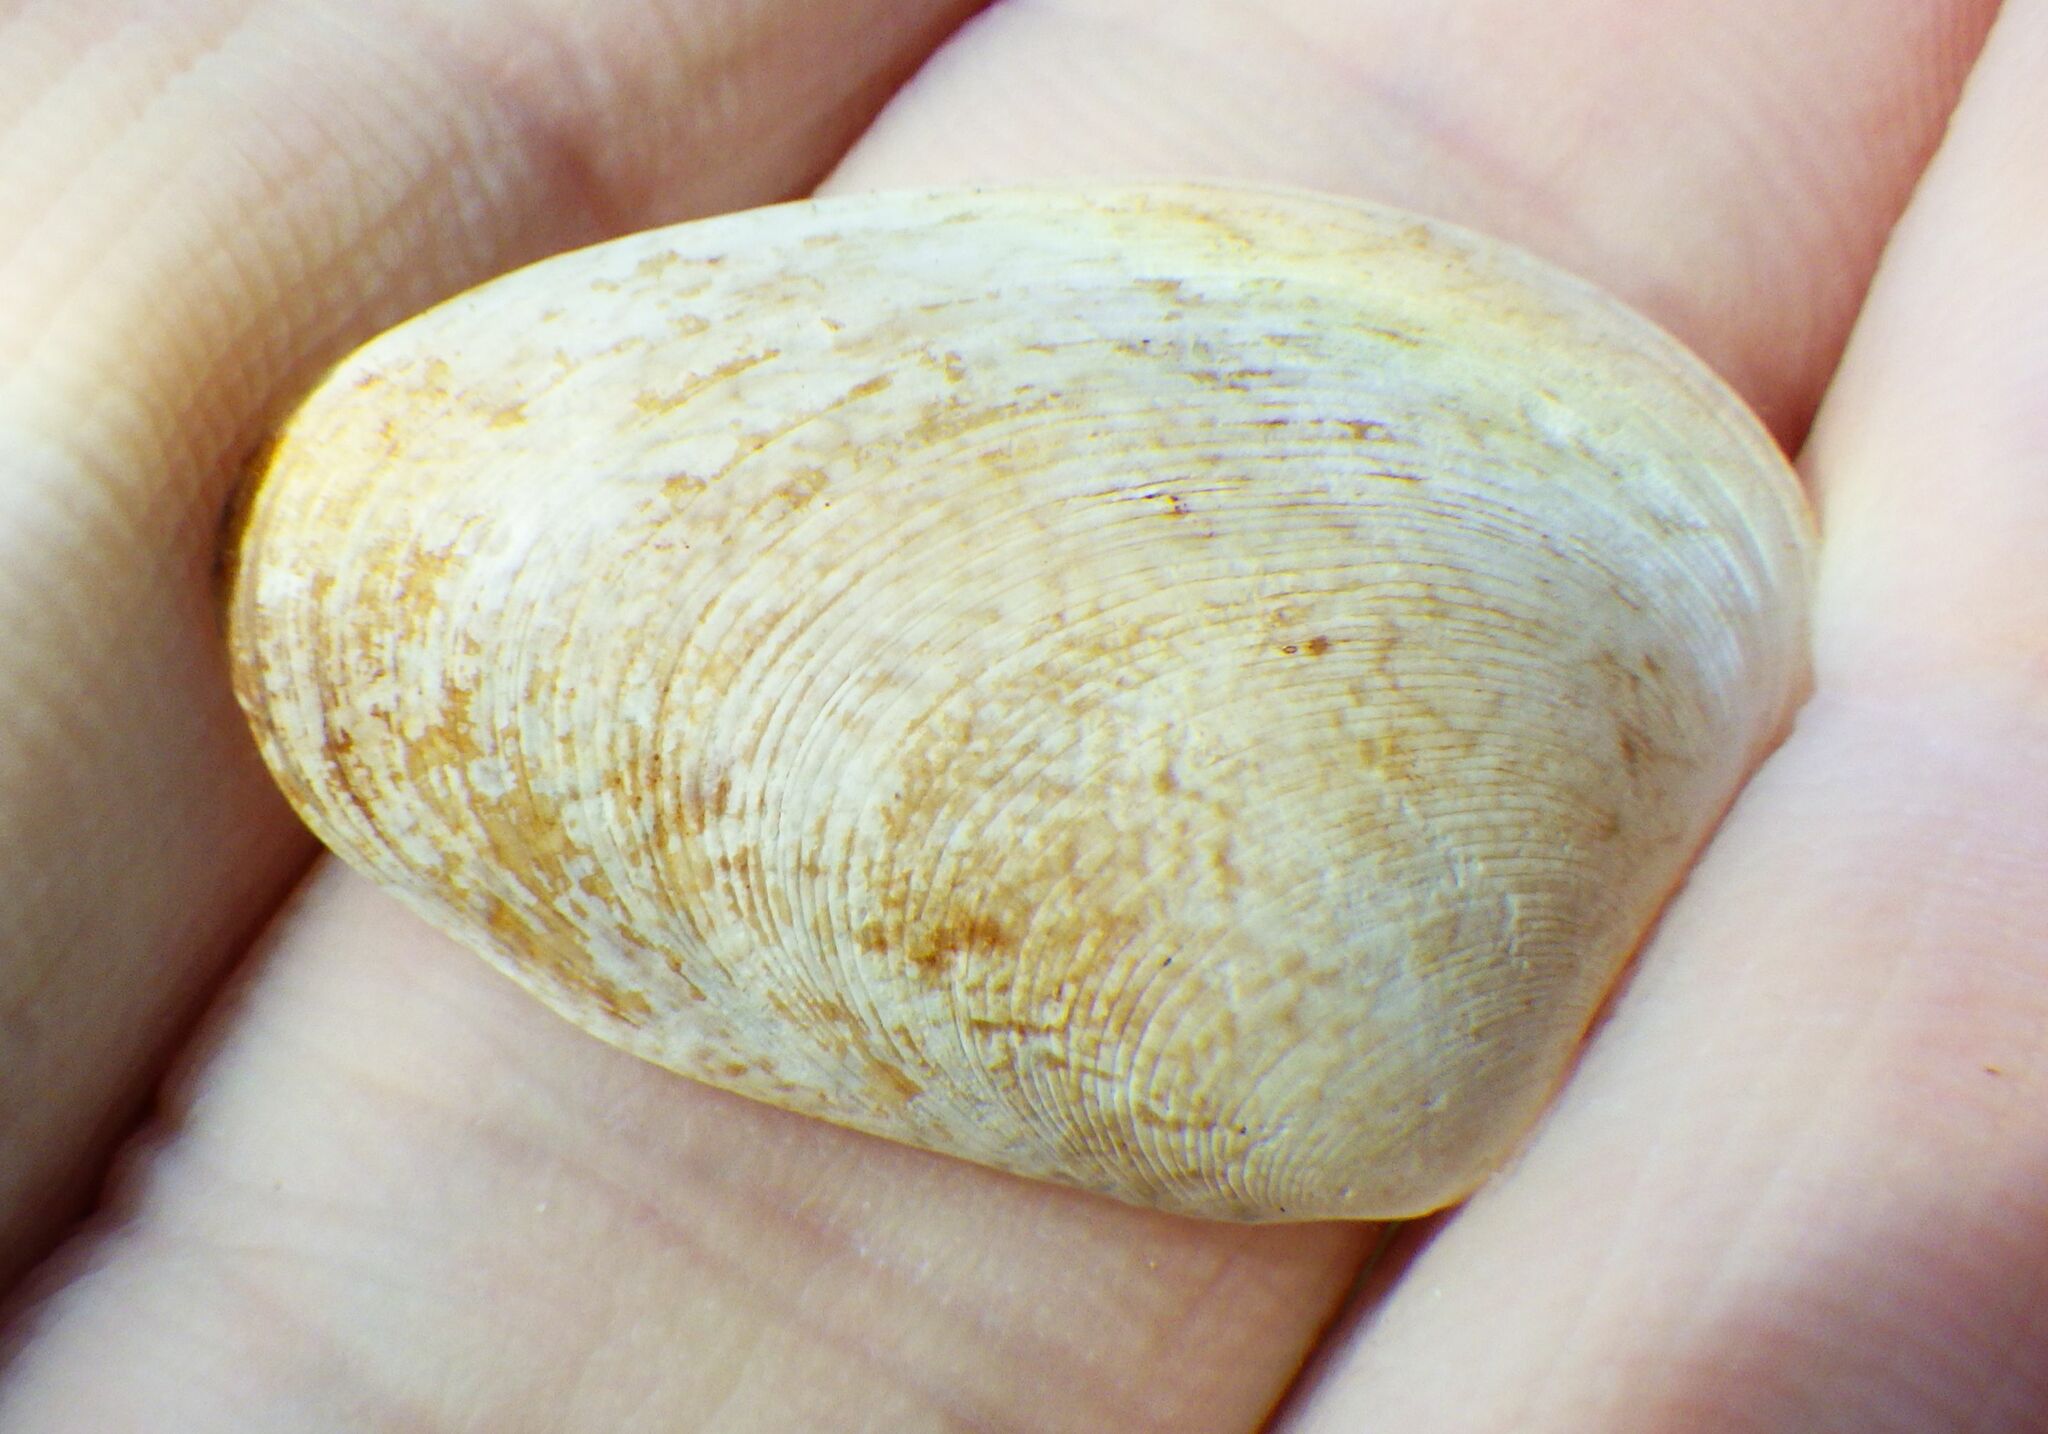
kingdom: Animalia
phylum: Mollusca
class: Bivalvia
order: Venerida
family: Veneridae
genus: Polititapes
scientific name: Polititapes aureus
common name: Golden carpet shell
